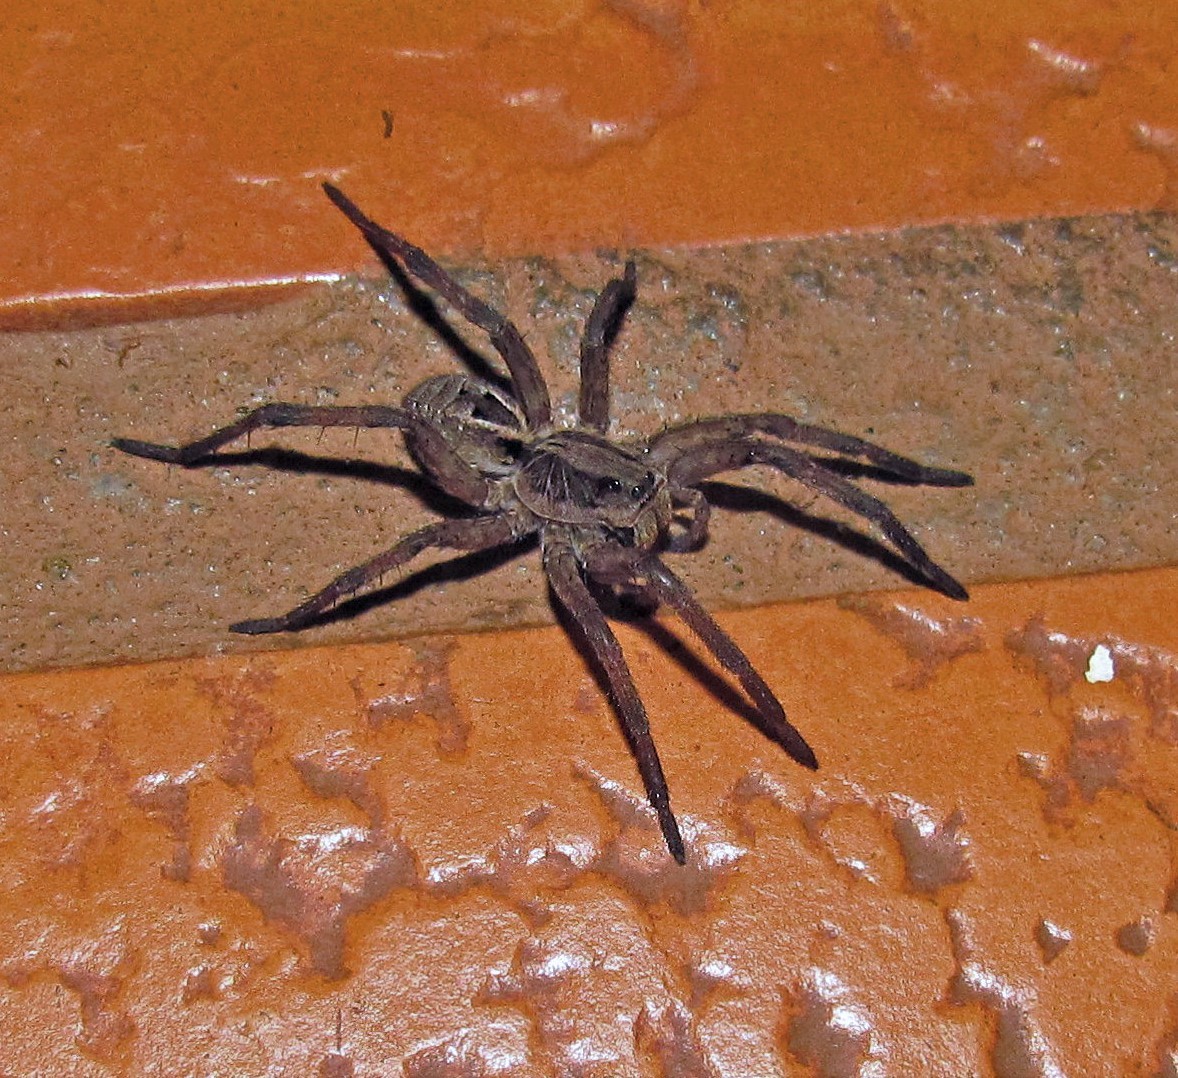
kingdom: Animalia
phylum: Arthropoda
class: Arachnida
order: Araneae
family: Lycosidae
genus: Lycosa
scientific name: Lycosa erythrognatha
